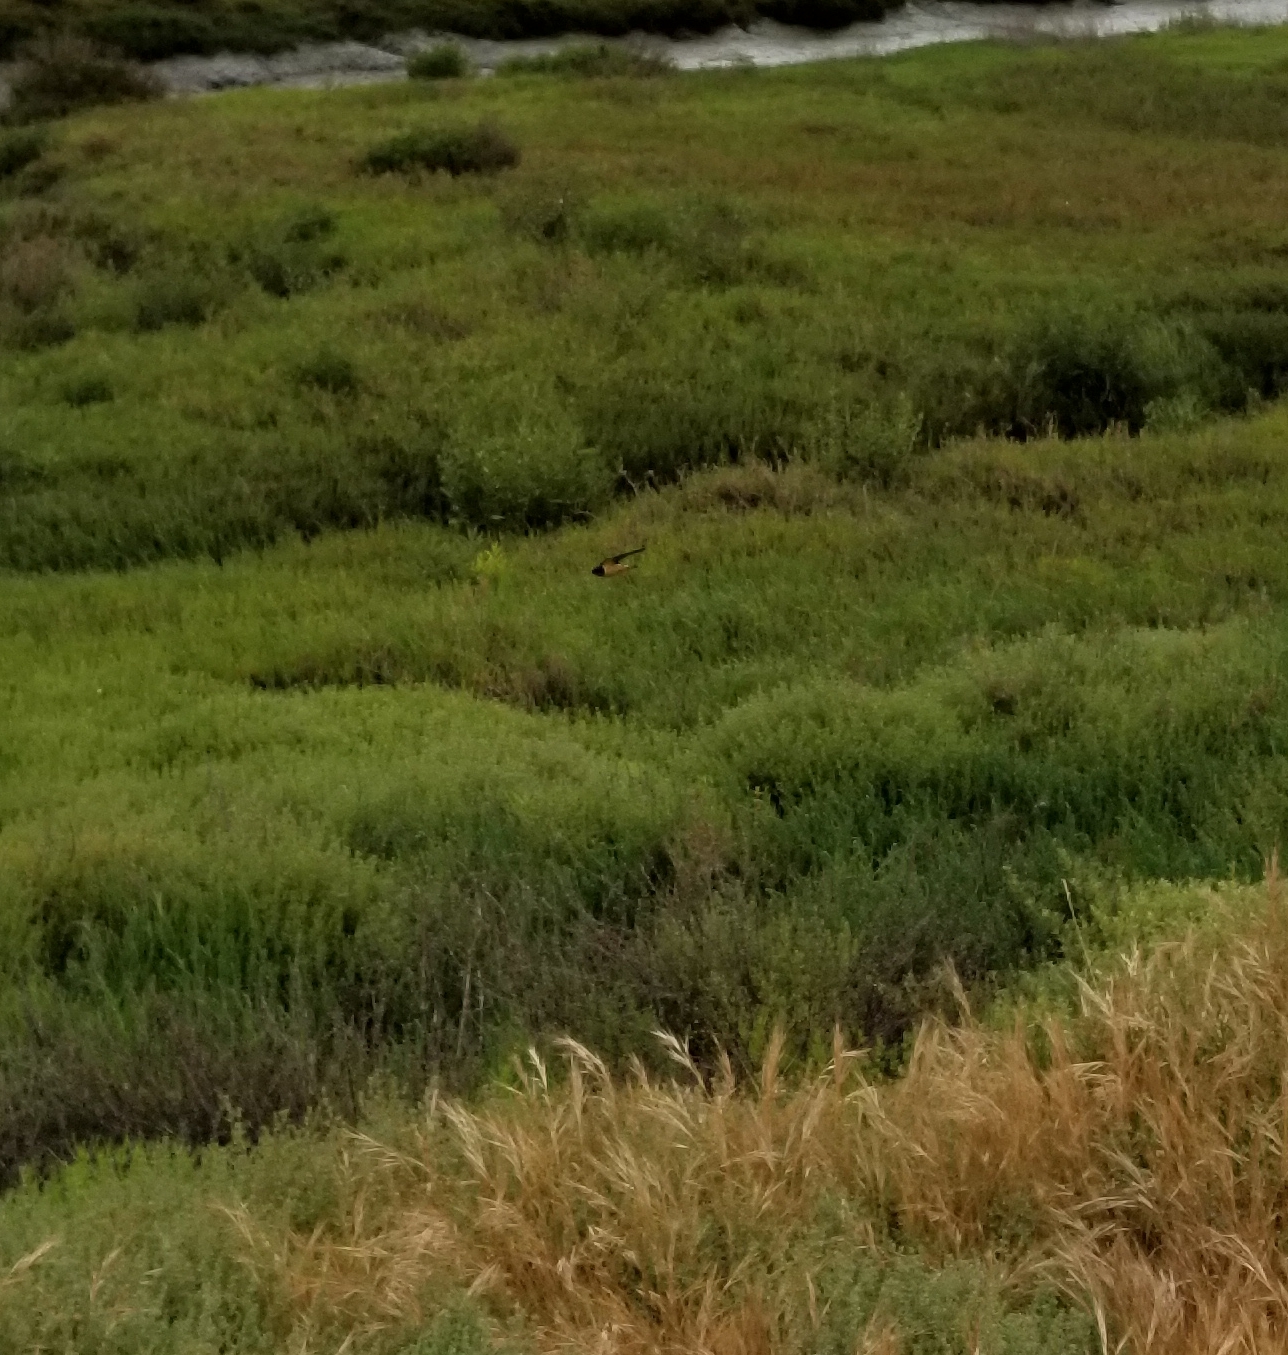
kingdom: Animalia
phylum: Chordata
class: Aves
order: Passeriformes
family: Hirundinidae
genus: Hirundo
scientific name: Hirundo rustica
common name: Barn swallow
